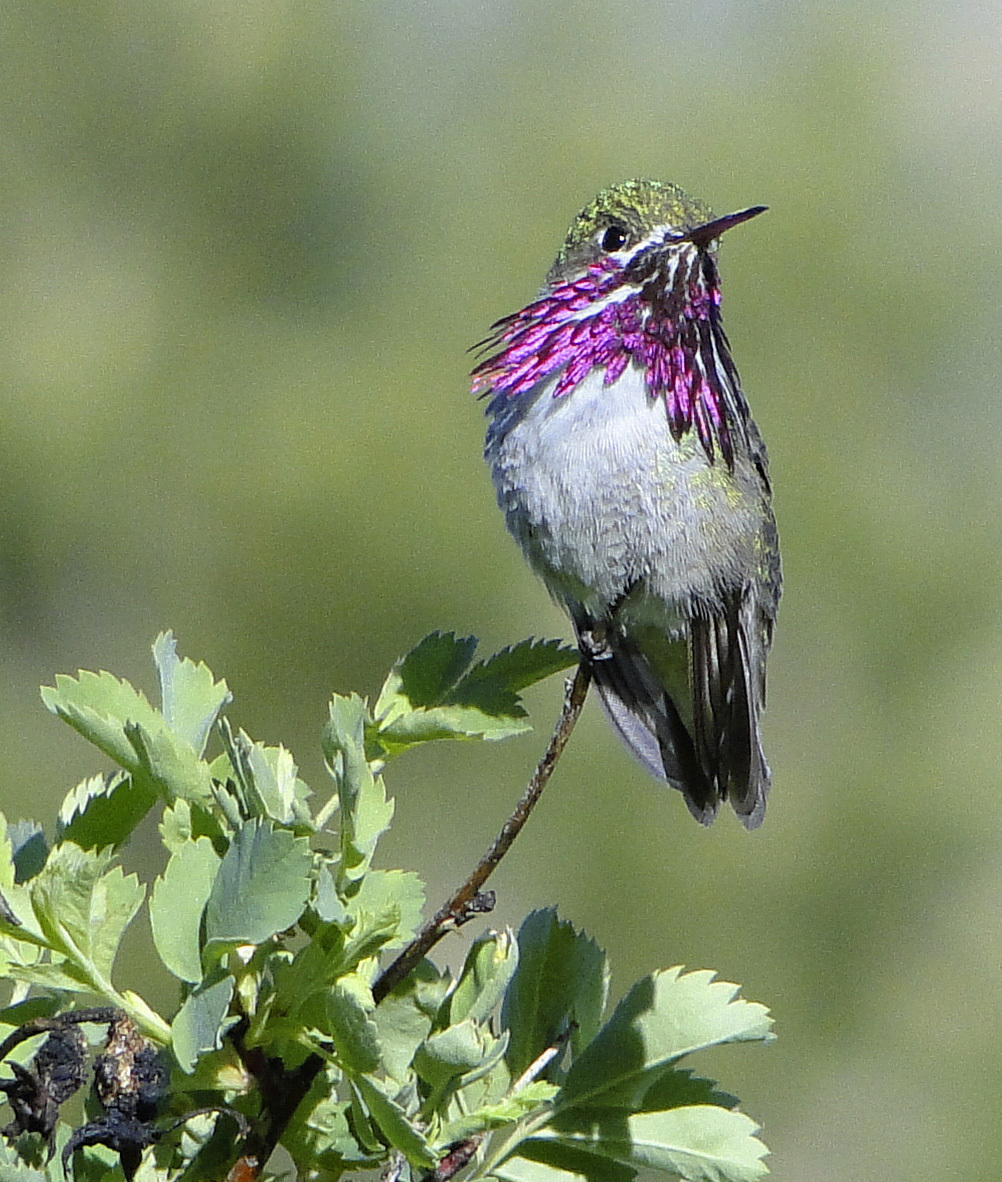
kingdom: Animalia
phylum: Chordata
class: Aves
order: Apodiformes
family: Trochilidae
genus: Selasphorus
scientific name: Selasphorus calliope
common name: Calliope hummingbird
